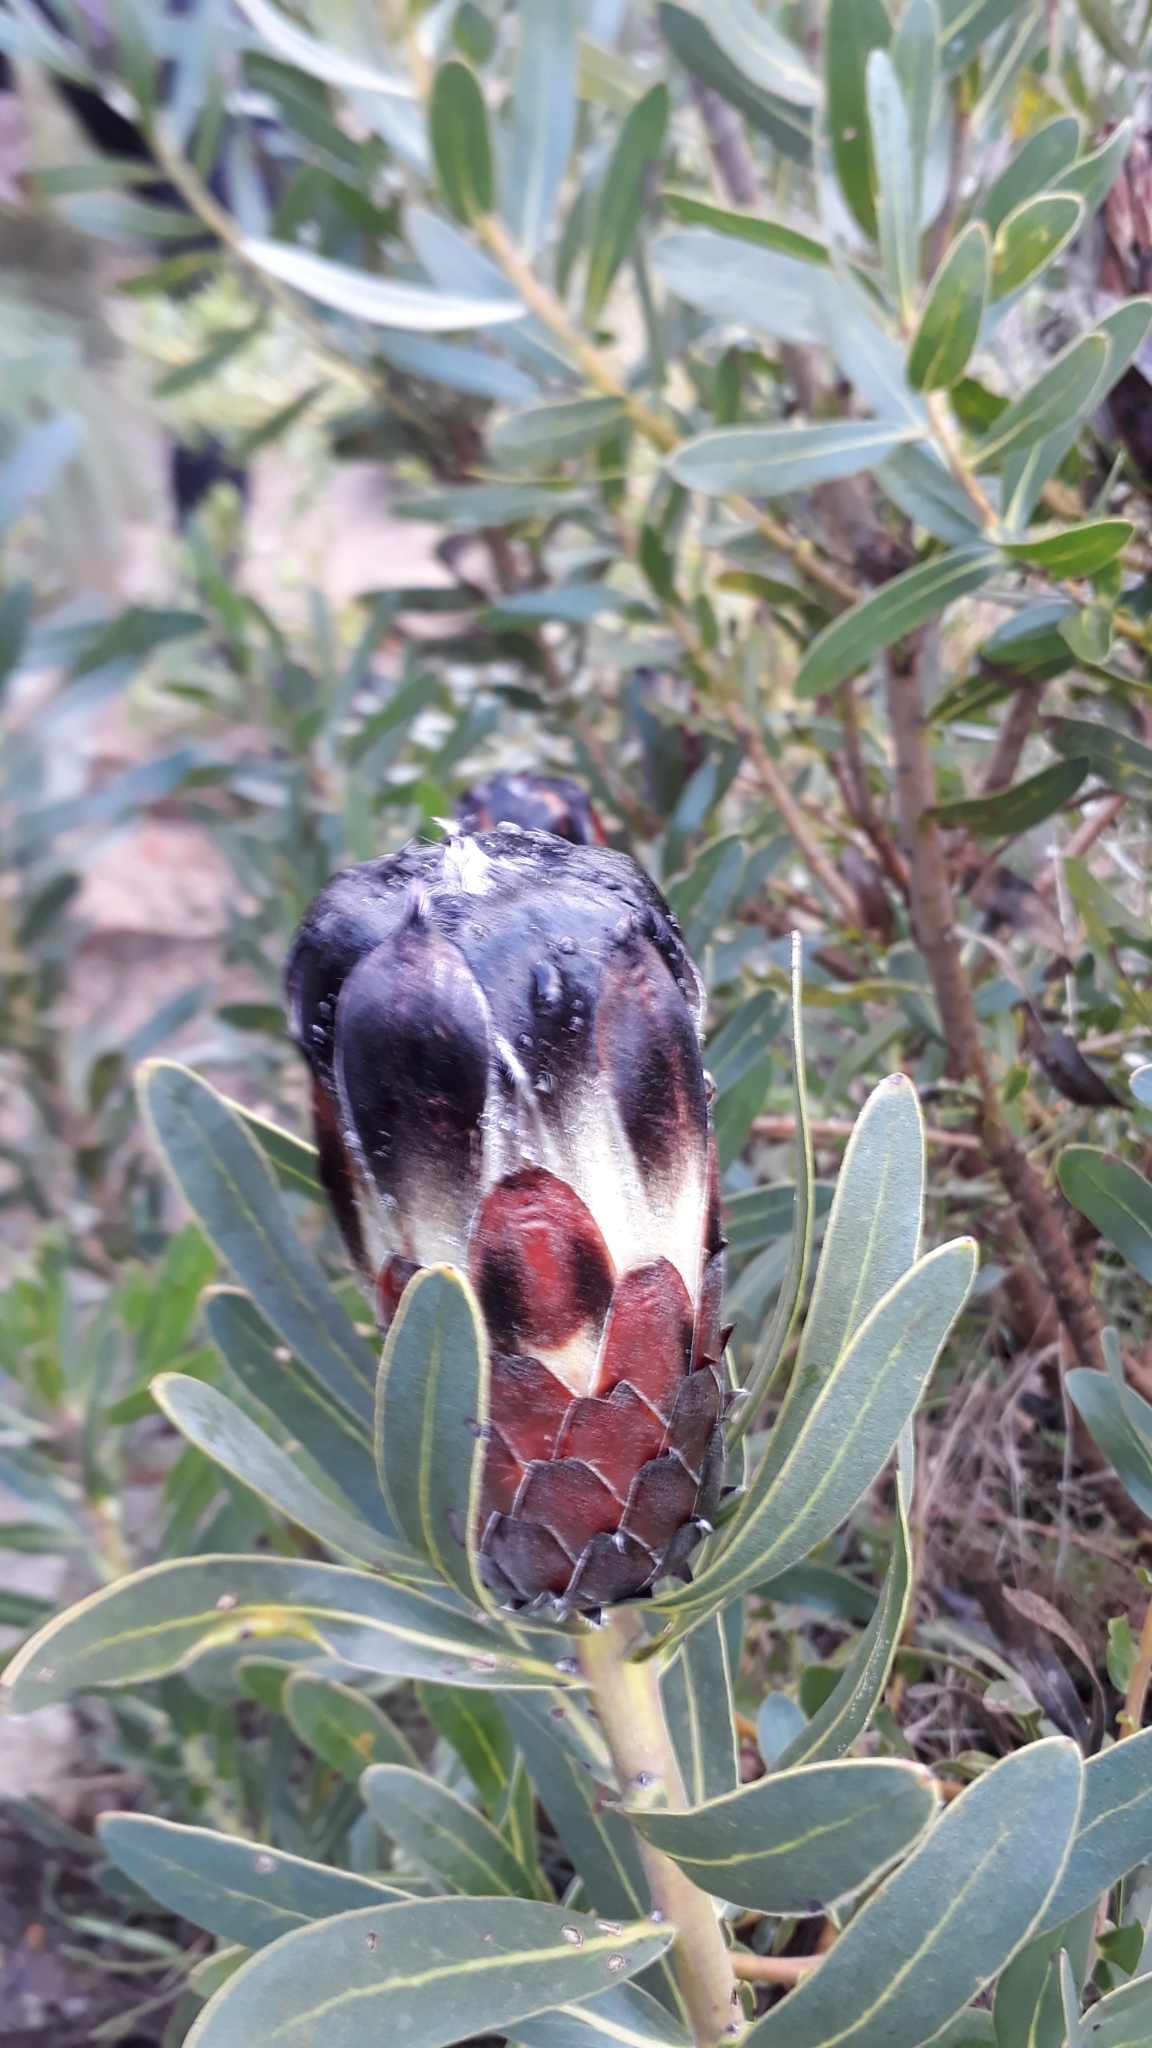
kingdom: Plantae
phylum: Tracheophyta
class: Magnoliopsida
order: Proteales
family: Proteaceae
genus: Protea
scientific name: Protea lepidocarpodendron
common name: Black-bearded protea
